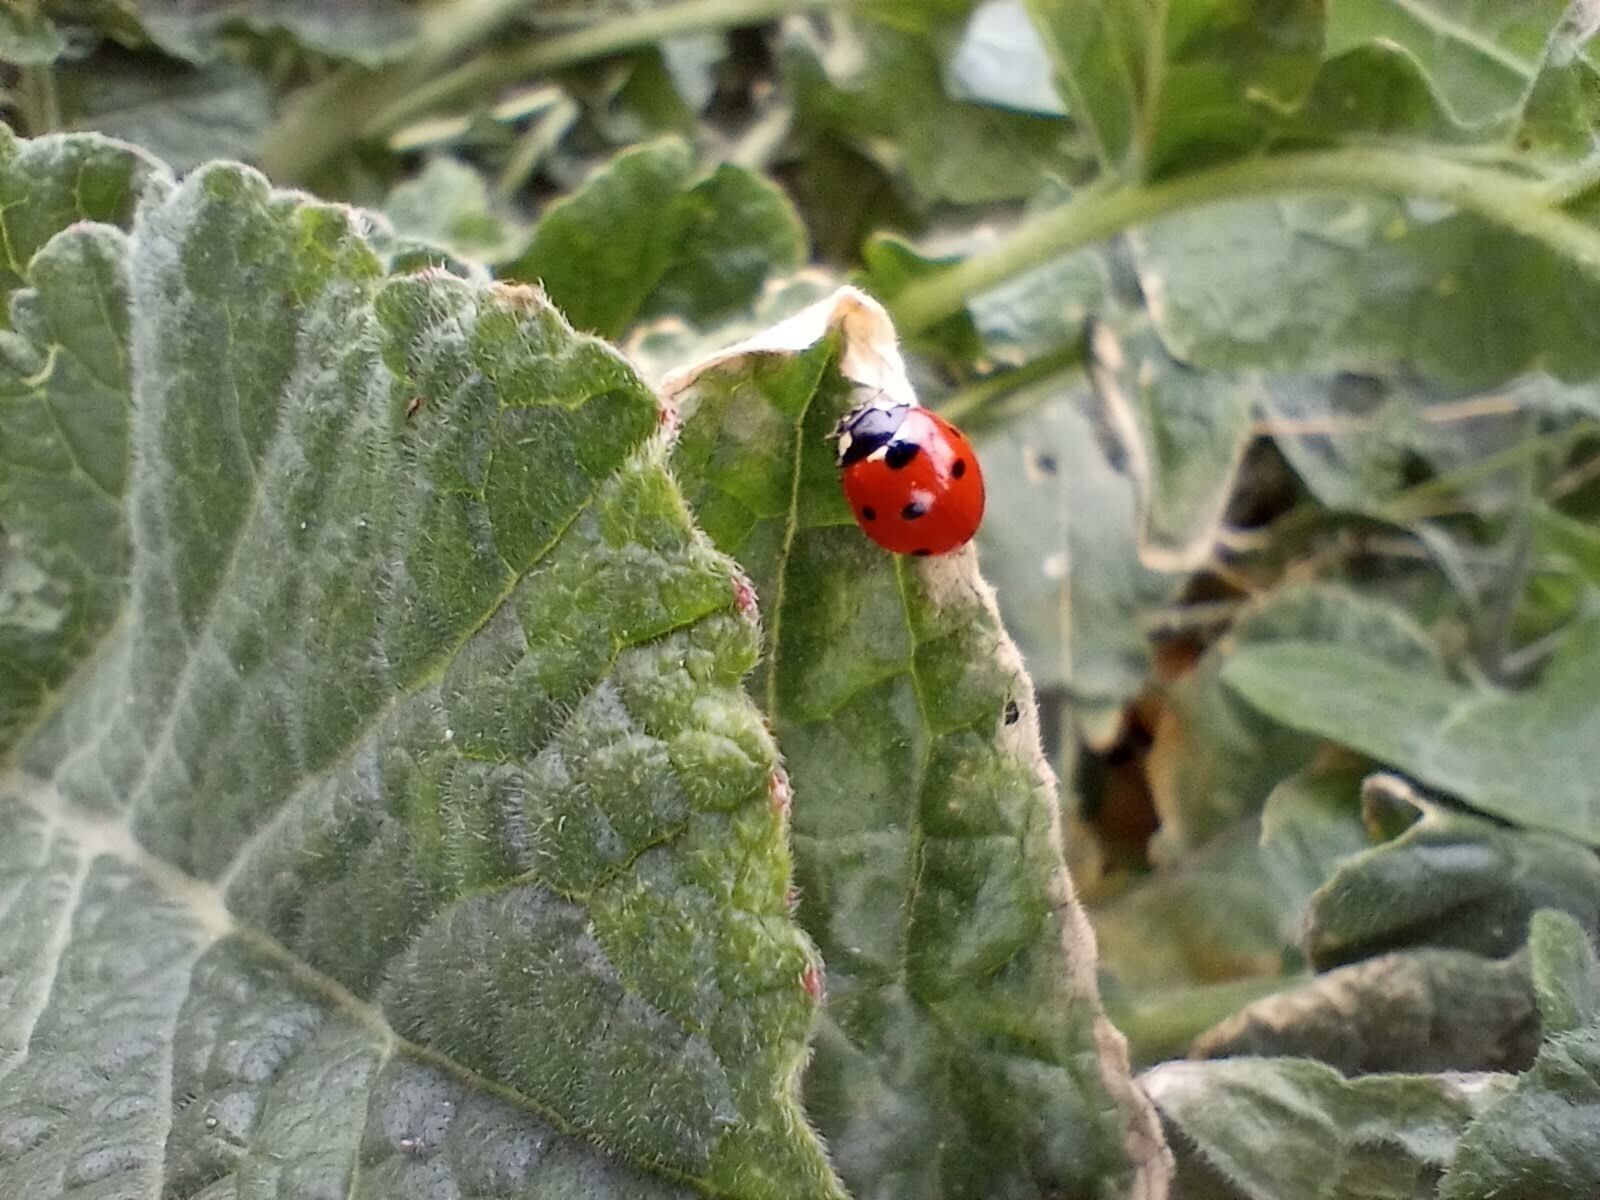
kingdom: Animalia
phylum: Arthropoda
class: Insecta
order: Coleoptera
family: Coccinellidae
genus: Coccinella
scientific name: Coccinella septempunctata
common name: Sevenspotted lady beetle
